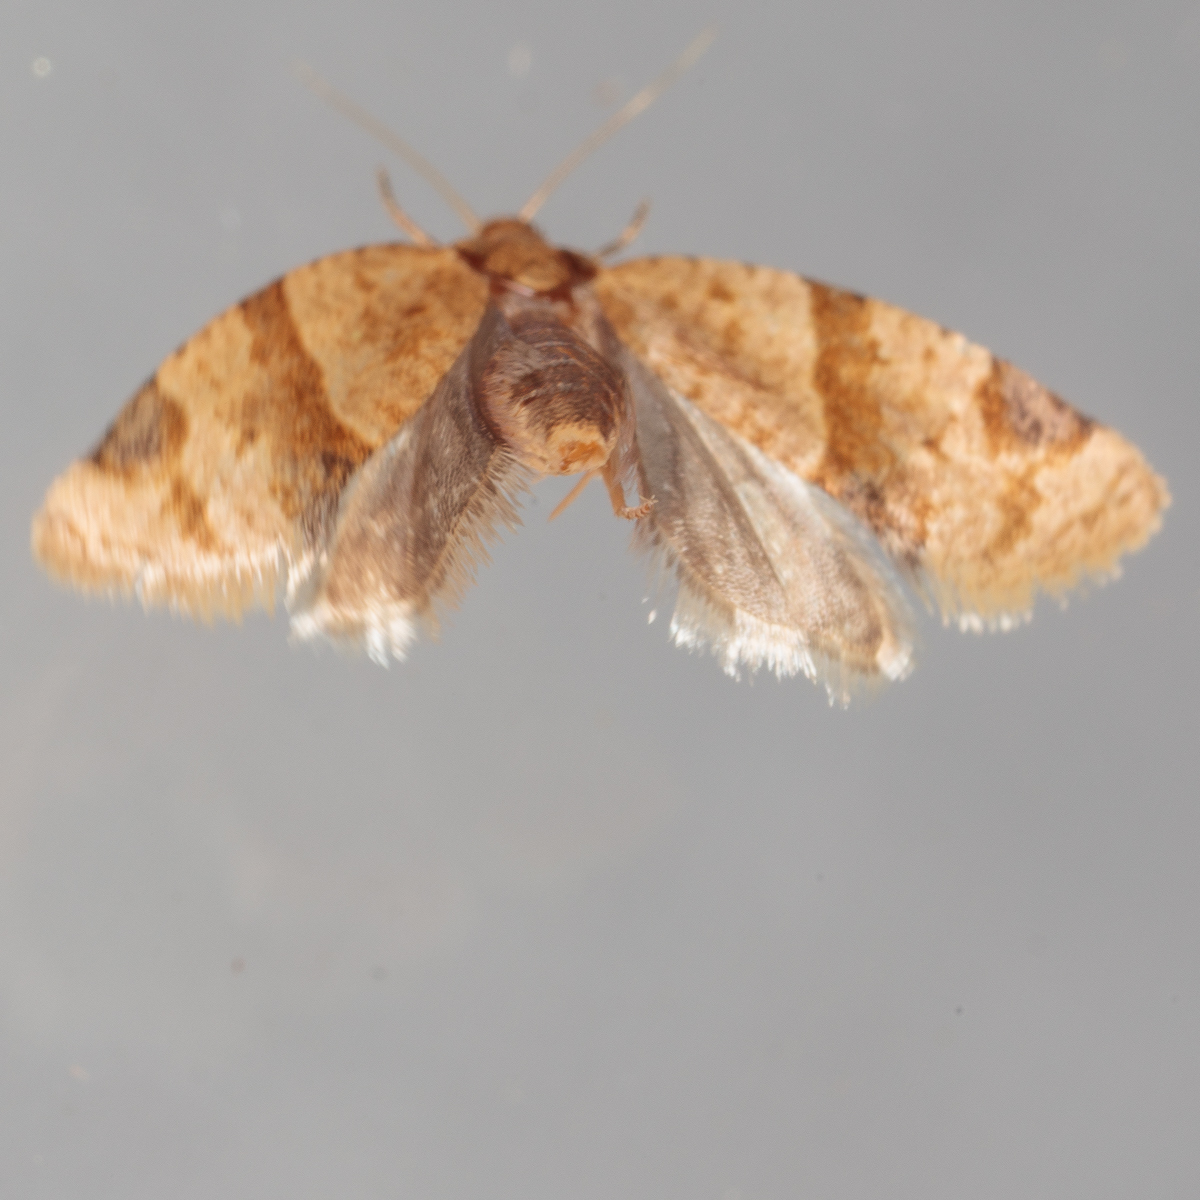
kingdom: Animalia
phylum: Arthropoda
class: Insecta
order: Lepidoptera
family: Tortricidae
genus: Clepsis
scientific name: Clepsis peritana
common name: Garden tortrix
